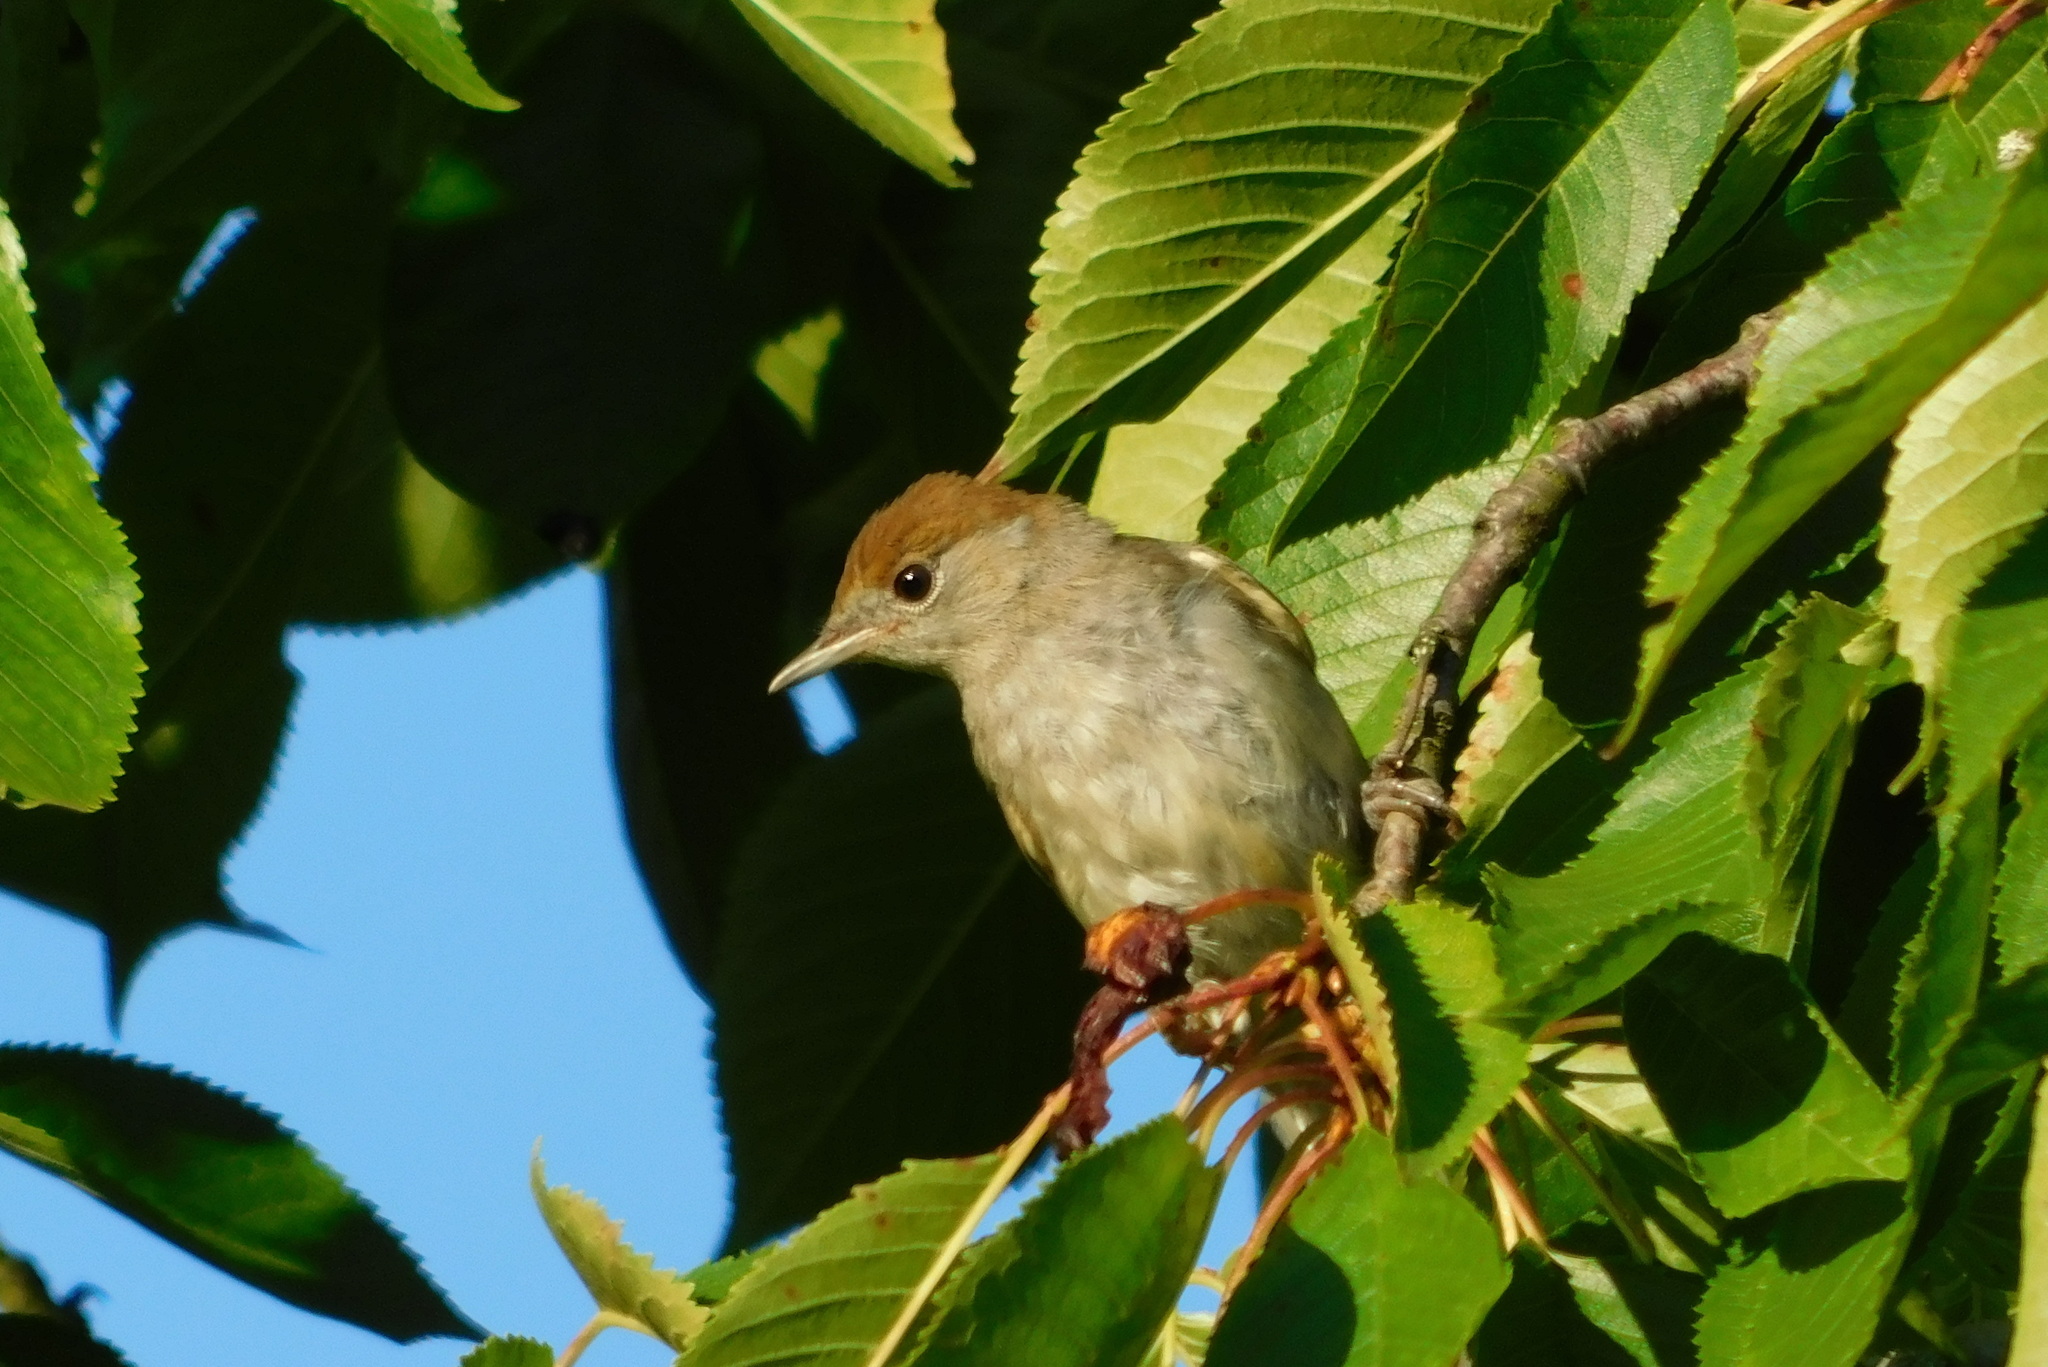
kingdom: Animalia
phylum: Chordata
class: Aves
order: Passeriformes
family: Sylviidae
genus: Sylvia
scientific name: Sylvia atricapilla
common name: Eurasian blackcap
